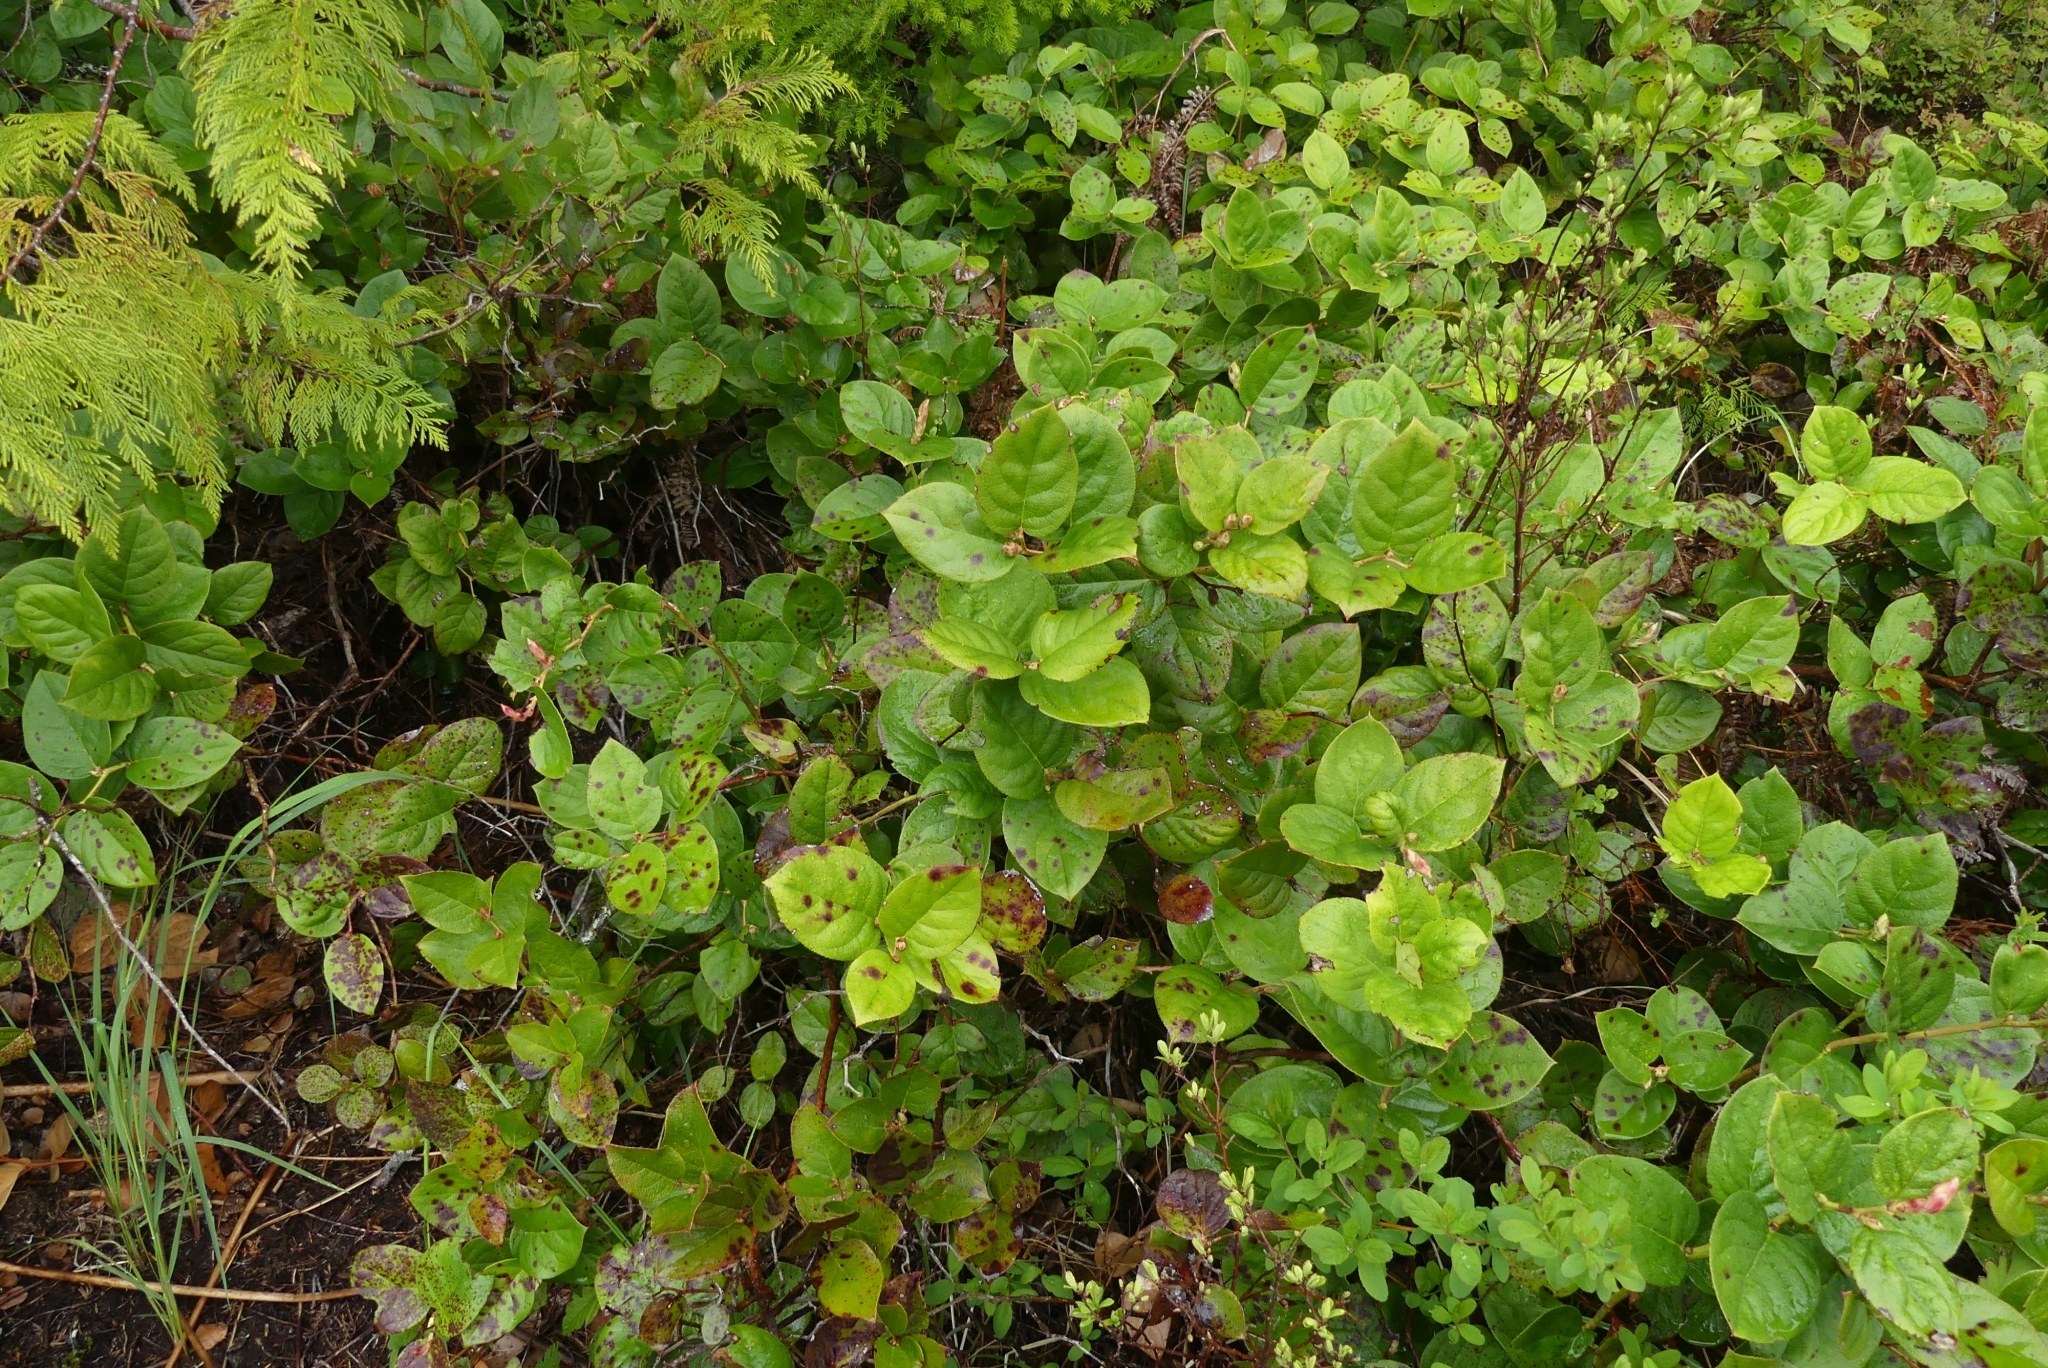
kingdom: Plantae
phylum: Tracheophyta
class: Magnoliopsida
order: Ericales
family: Ericaceae
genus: Gaultheria
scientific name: Gaultheria shallon
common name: Shallon
